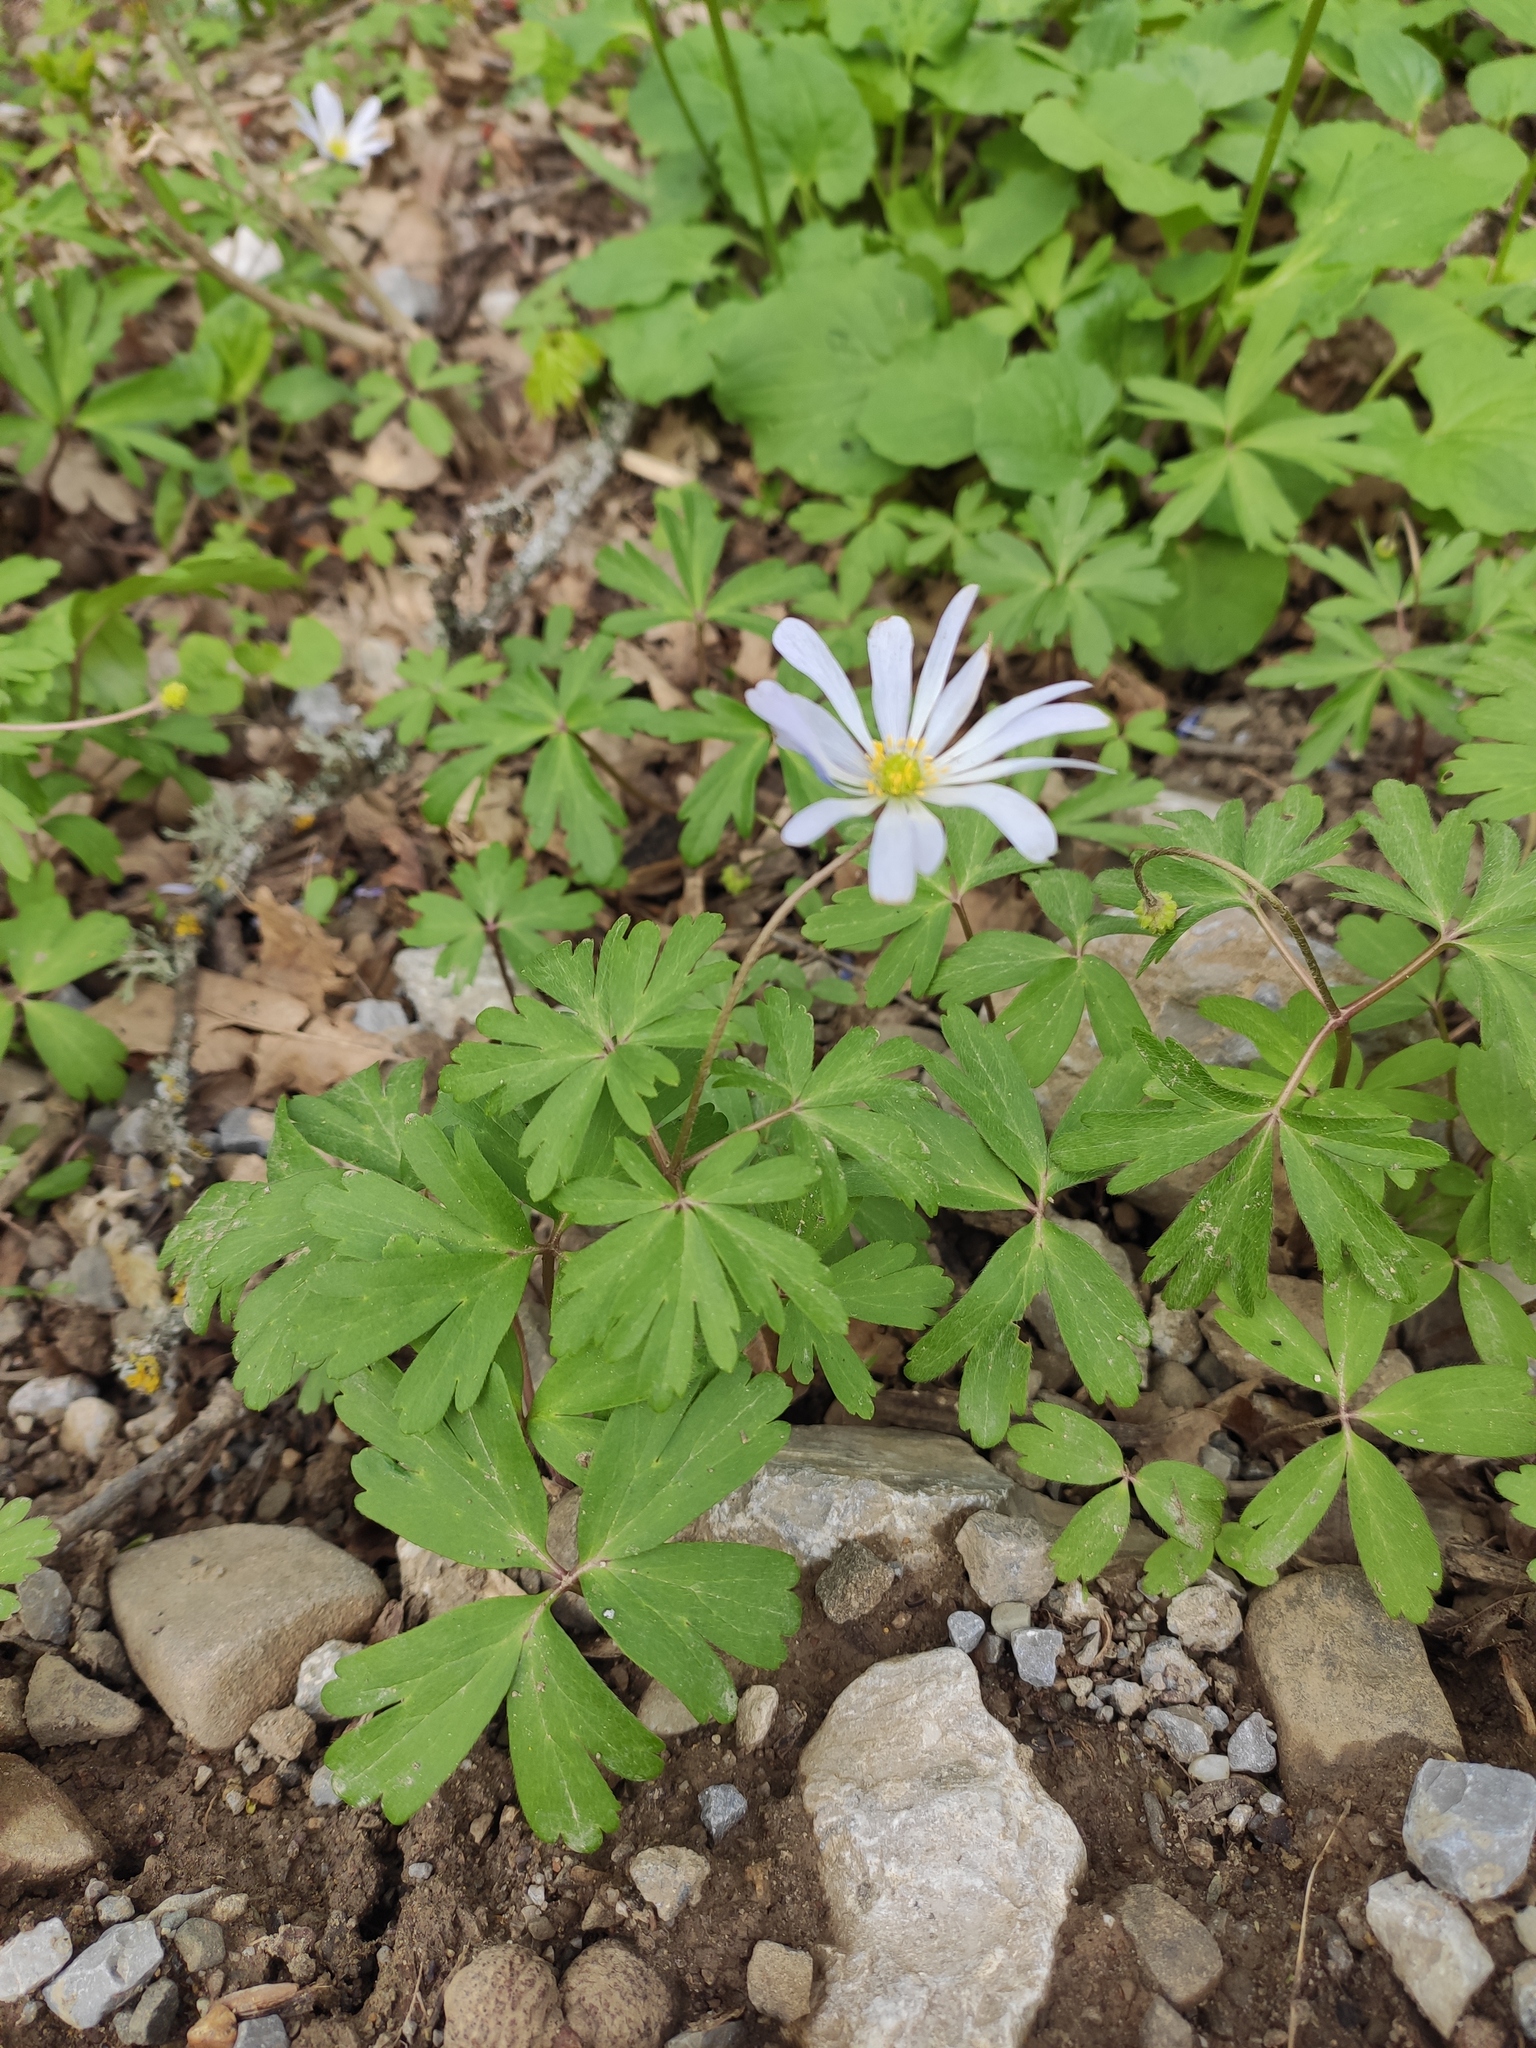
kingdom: Plantae
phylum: Tracheophyta
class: Magnoliopsida
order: Ranunculales
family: Ranunculaceae
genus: Anemone
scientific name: Anemone blanda
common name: Balkan anemone
